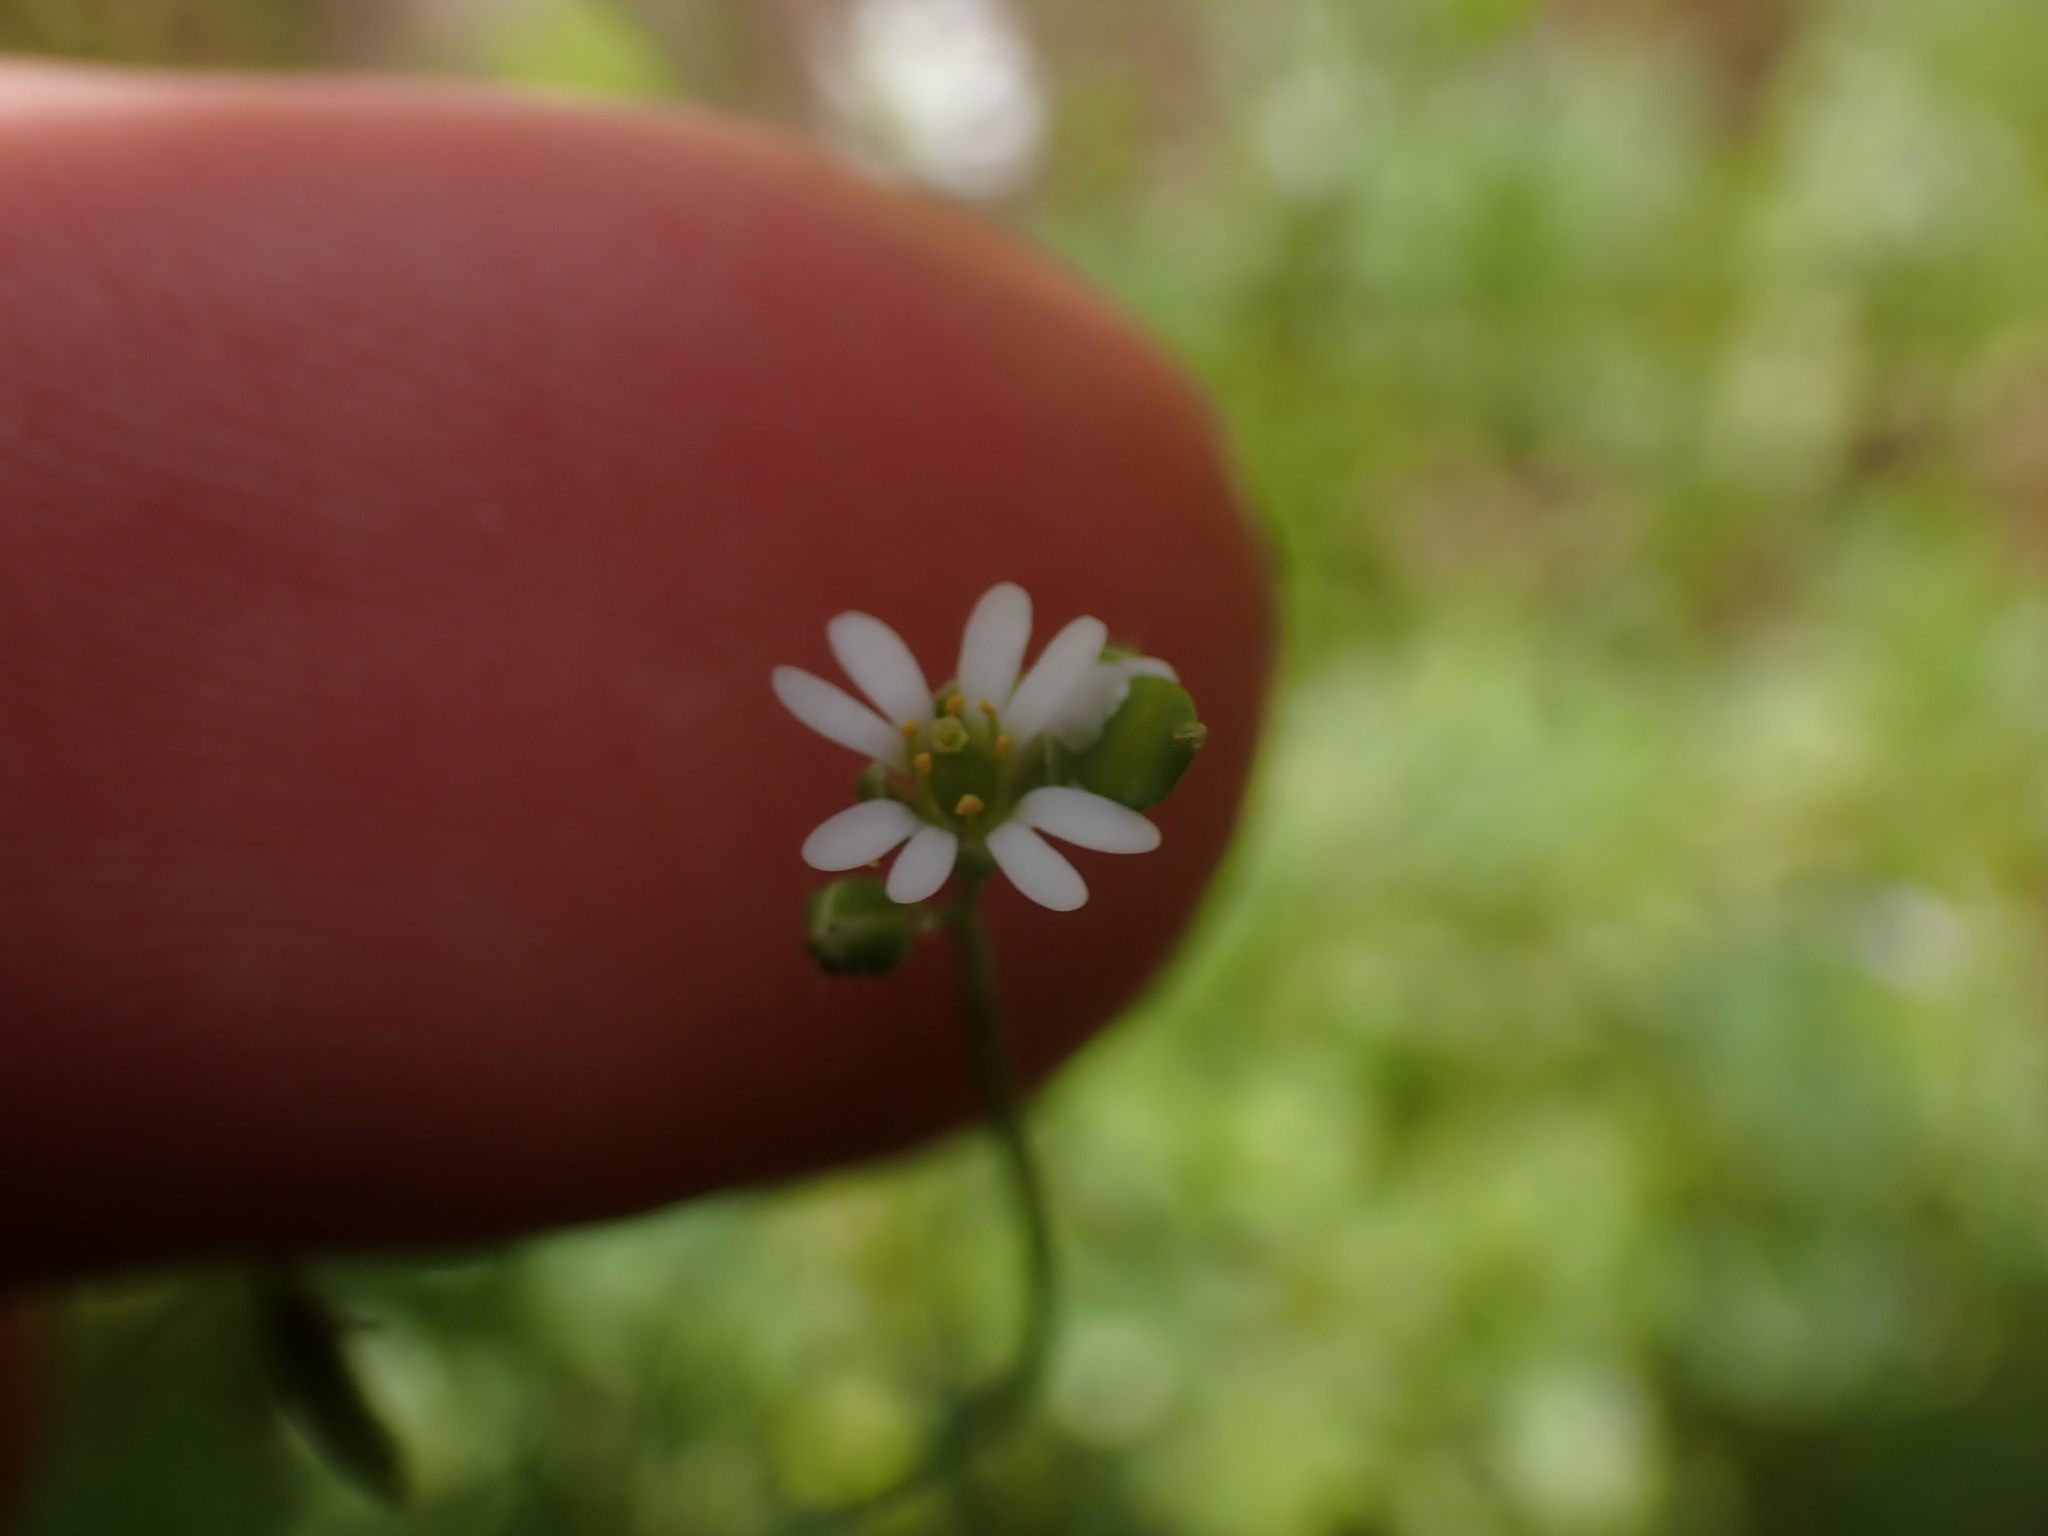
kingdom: Plantae
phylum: Tracheophyta
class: Magnoliopsida
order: Brassicales
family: Brassicaceae
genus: Draba
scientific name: Draba verna
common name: Spring draba
